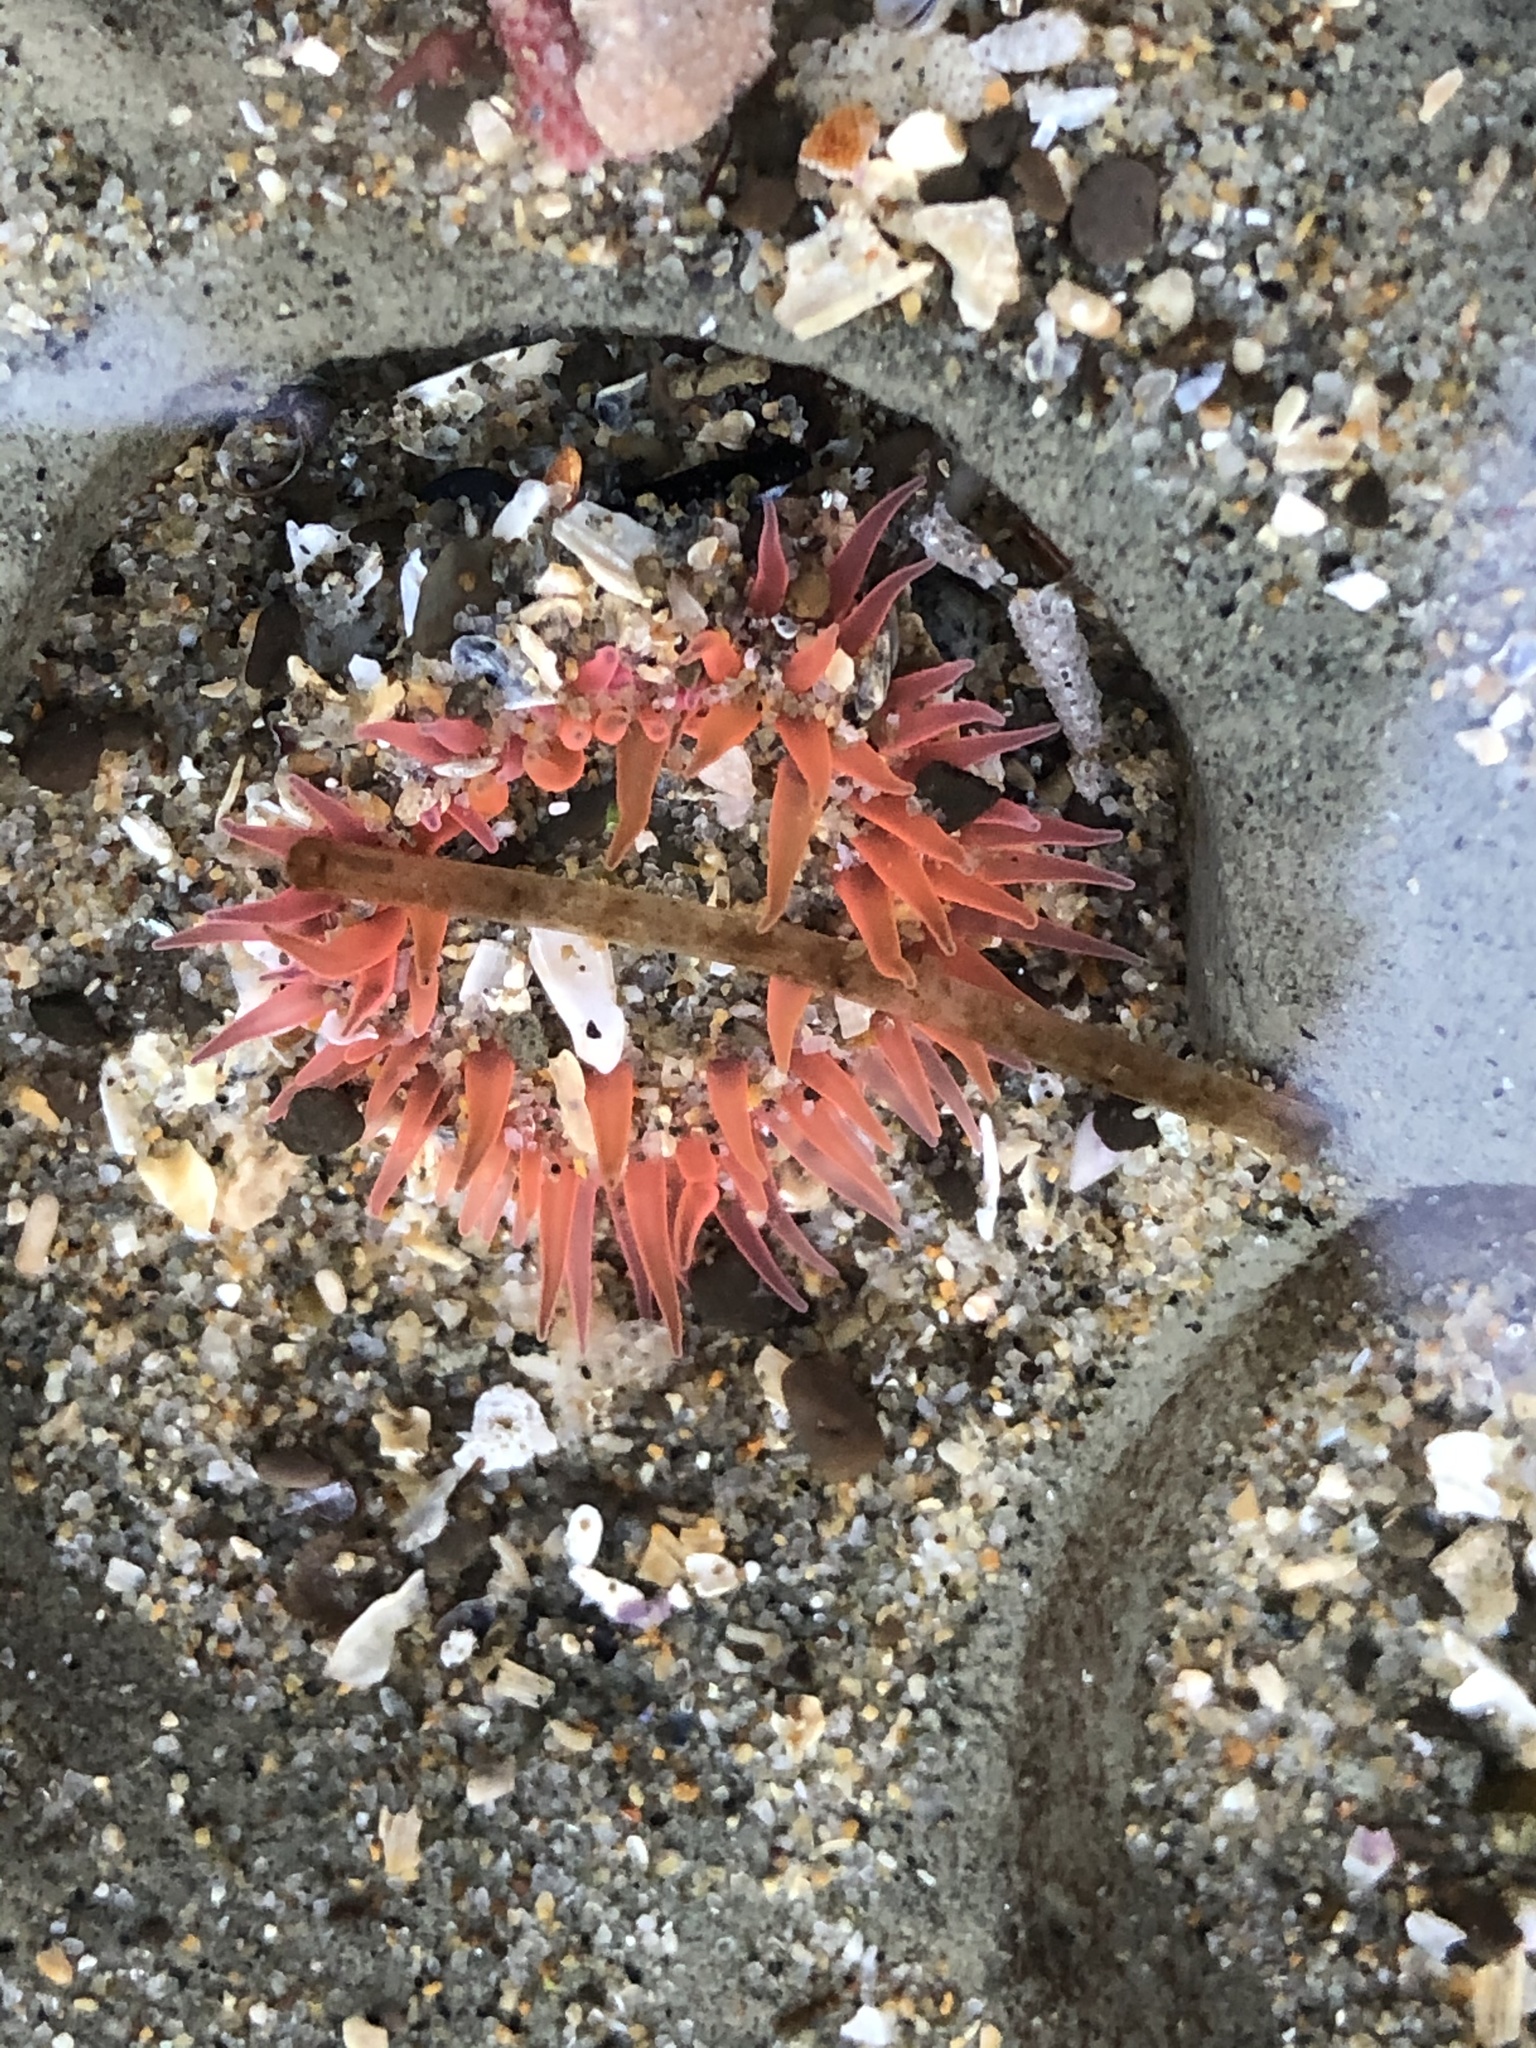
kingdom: Animalia
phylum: Cnidaria
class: Anthozoa
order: Actiniaria
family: Actiniidae
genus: Anthopleura
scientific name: Anthopleura artemisia
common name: Buried sea anemone
